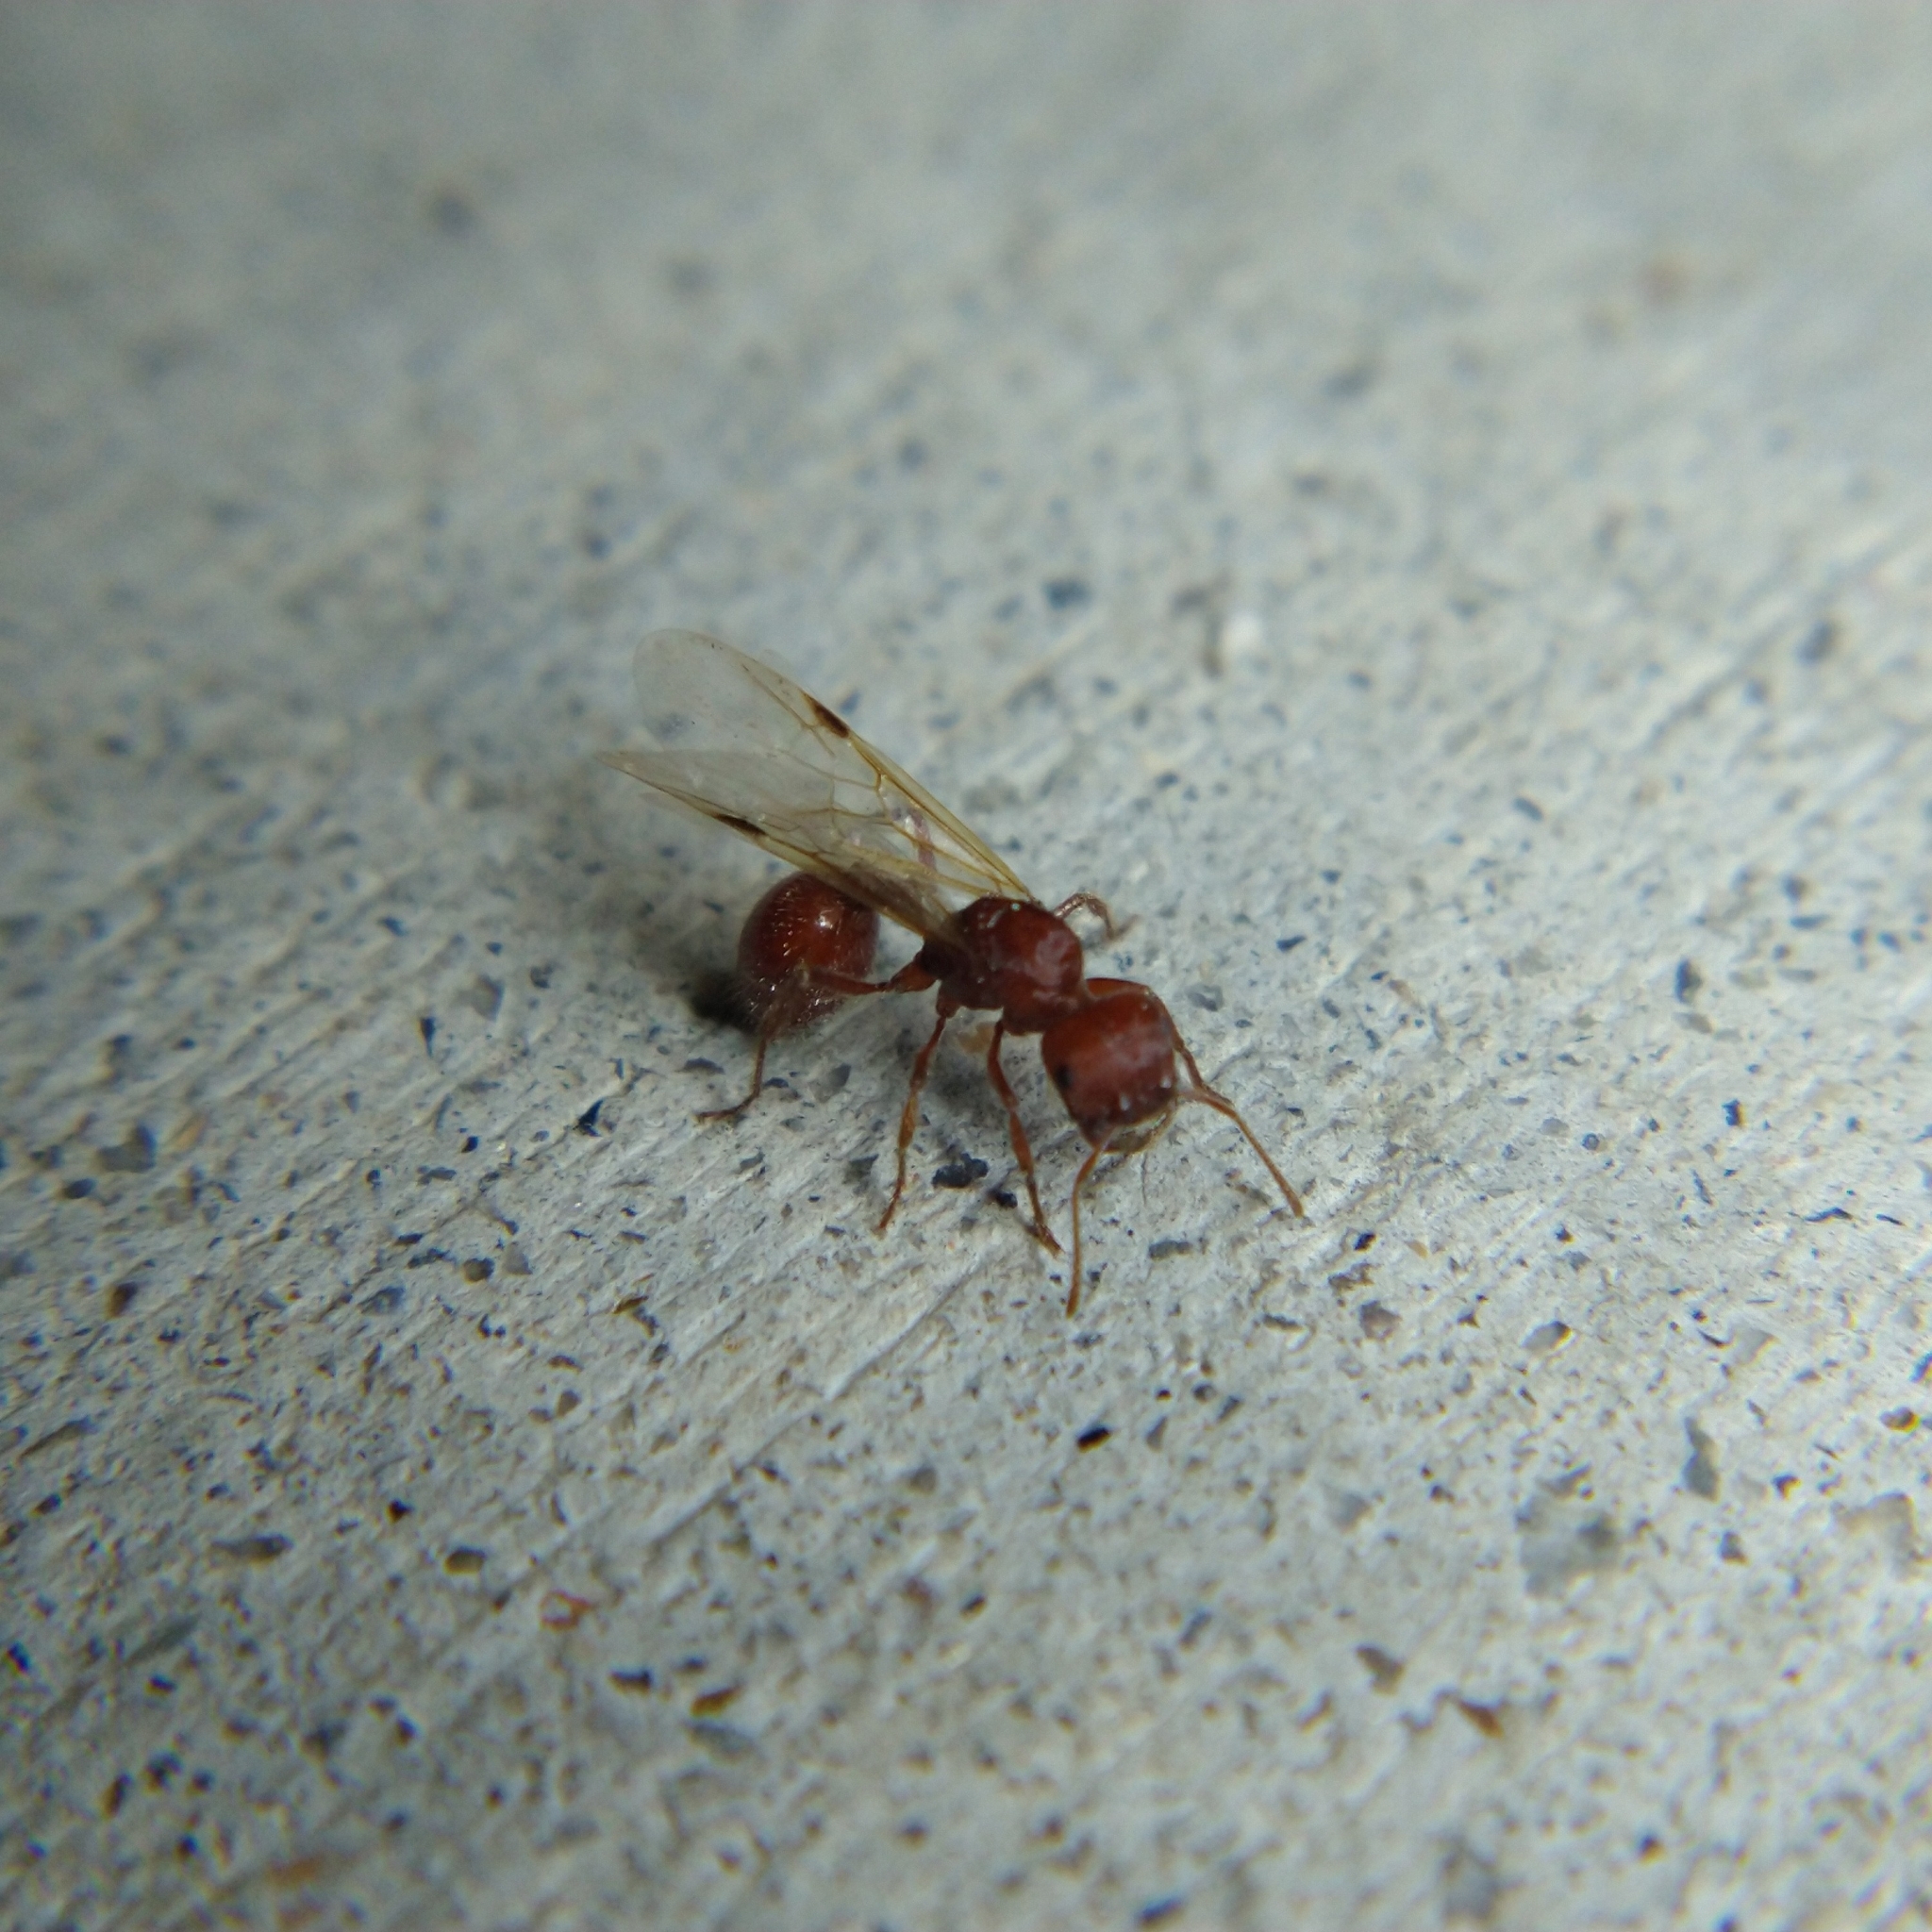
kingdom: Animalia
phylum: Arthropoda
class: Insecta
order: Hymenoptera
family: Formicidae
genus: Pogonomyrmex
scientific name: Pogonomyrmex
